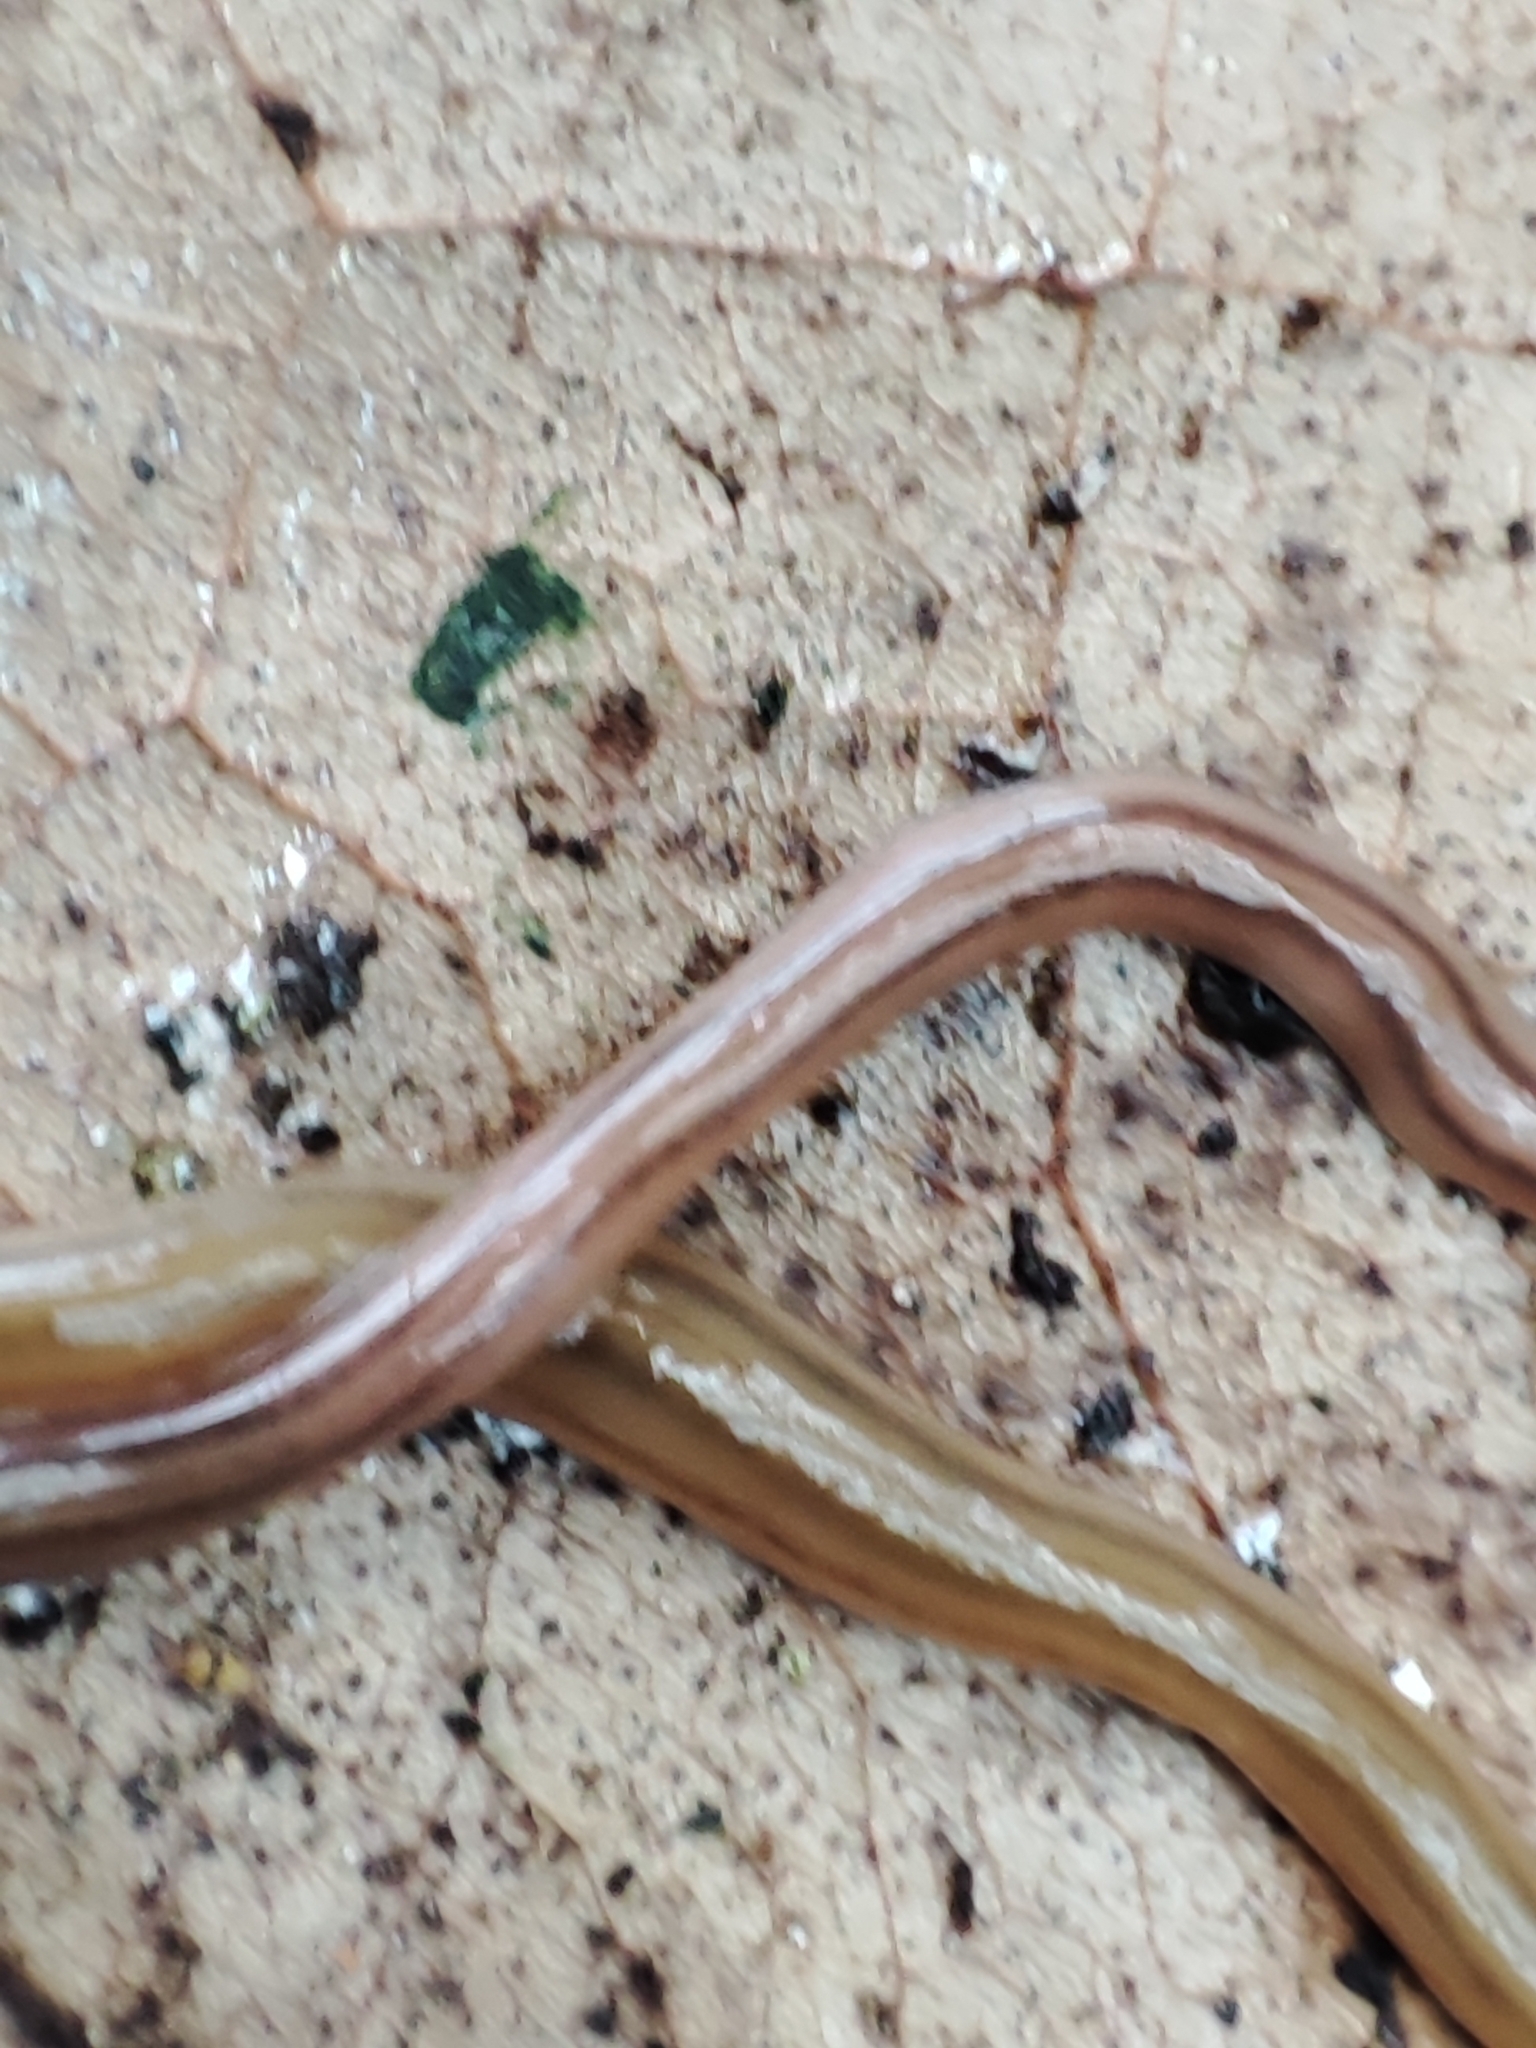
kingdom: Animalia
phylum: Platyhelminthes
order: Tricladida
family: Geoplanidae
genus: Bipalium
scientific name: Bipalium kewense
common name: Hammerhead flatworm
